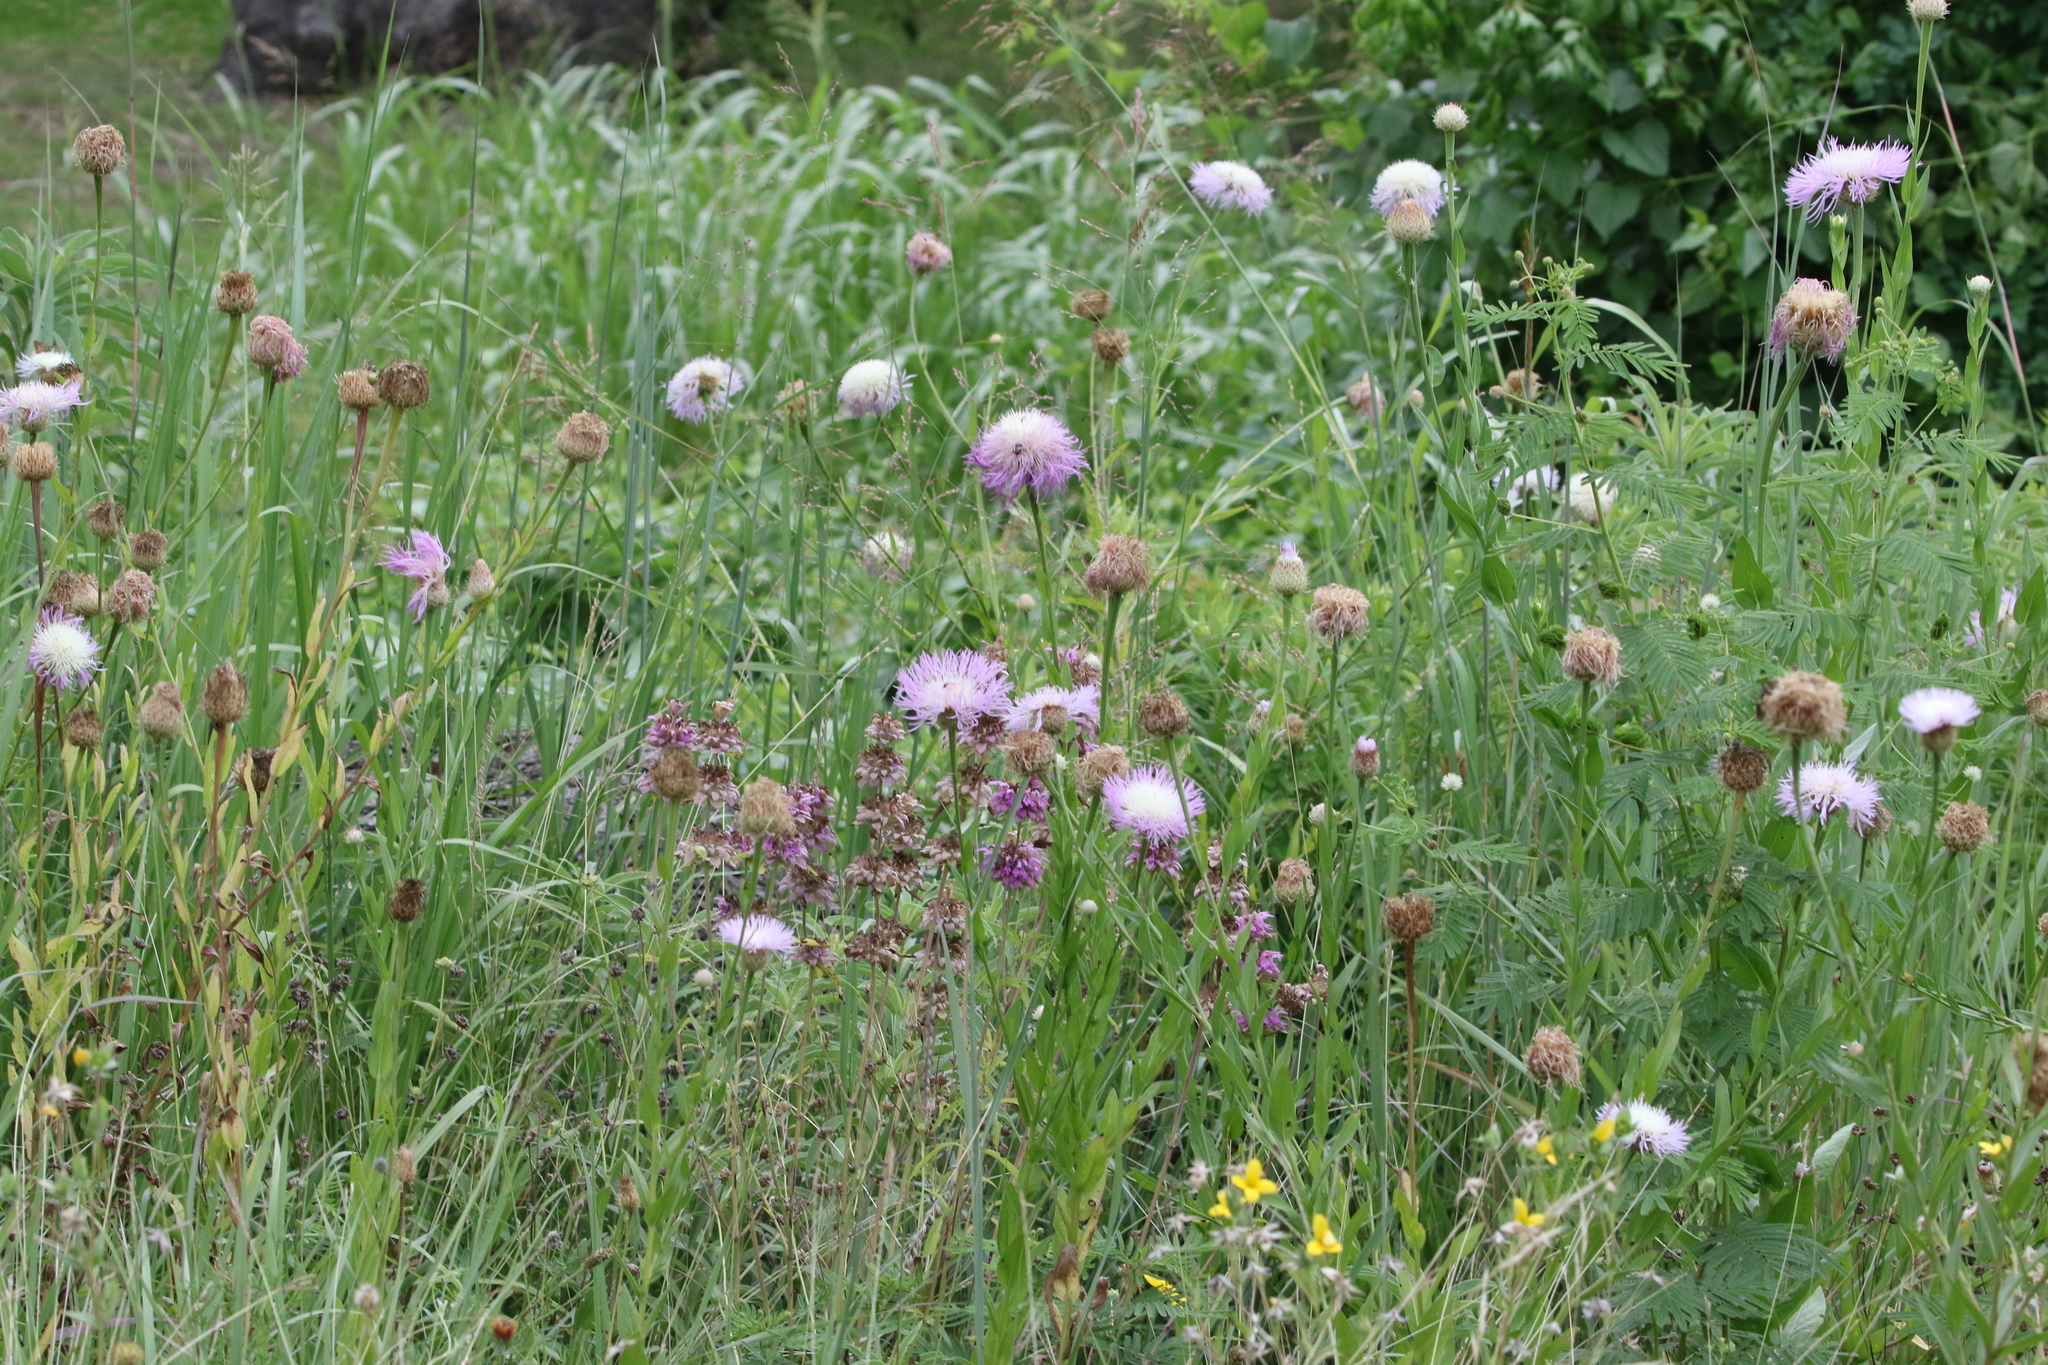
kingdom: Plantae
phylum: Tracheophyta
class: Magnoliopsida
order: Asterales
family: Asteraceae
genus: Plectocephalus
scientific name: Plectocephalus americanus
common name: American basket-flower
